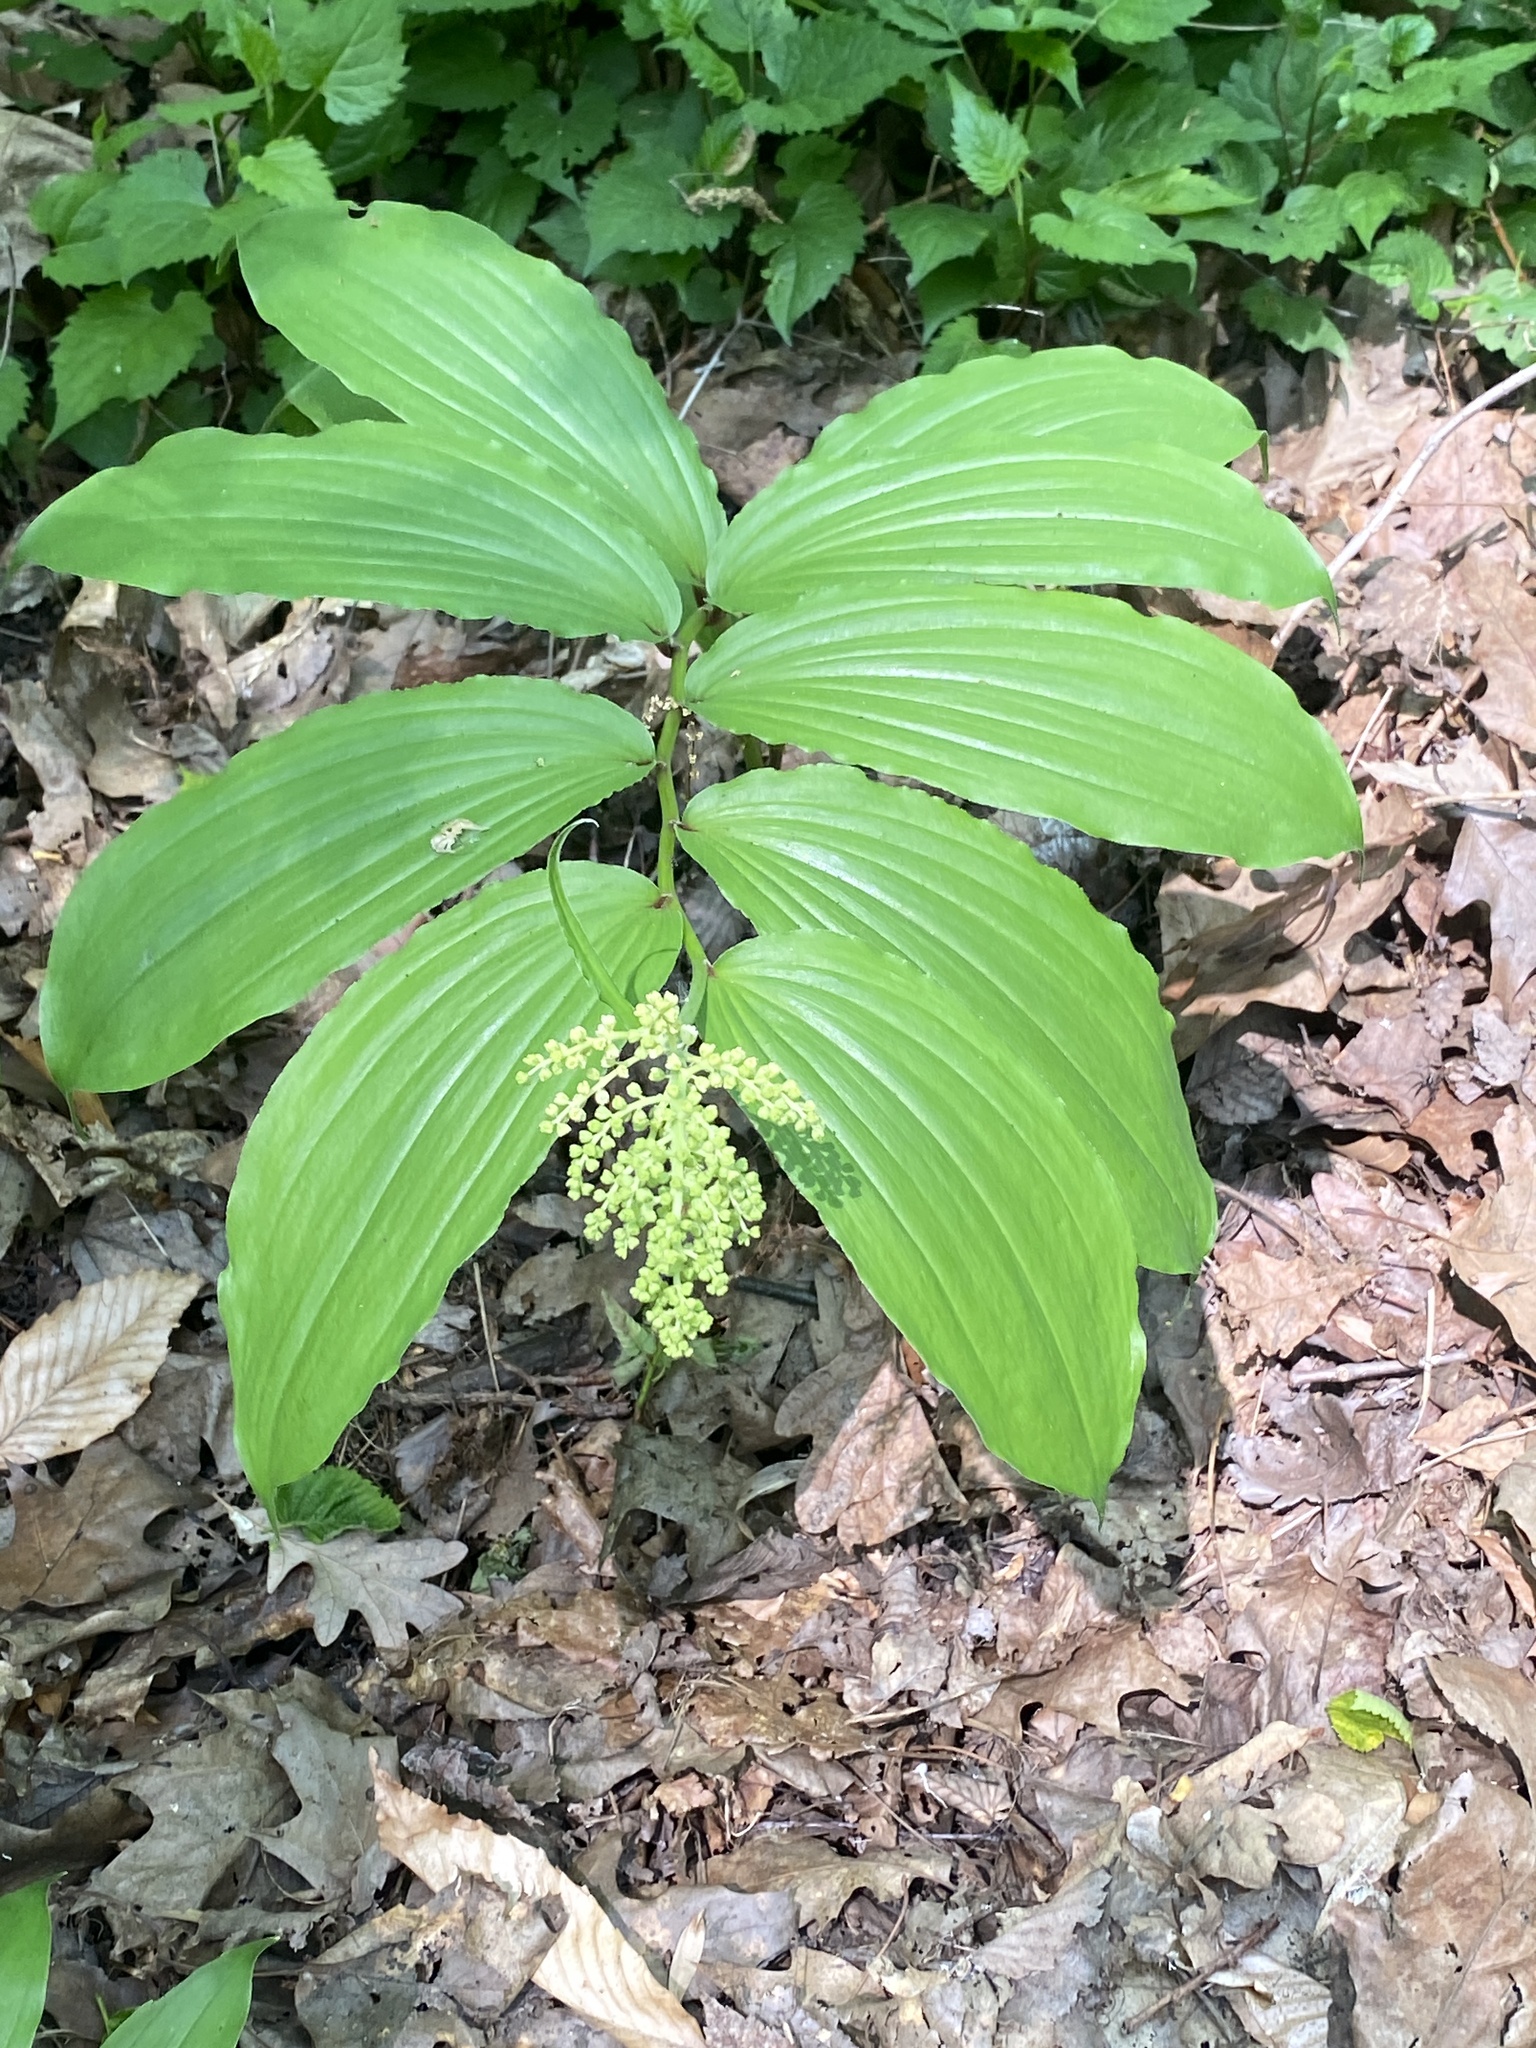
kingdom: Plantae
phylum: Tracheophyta
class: Liliopsida
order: Asparagales
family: Asparagaceae
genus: Maianthemum
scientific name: Maianthemum racemosum
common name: False spikenard
